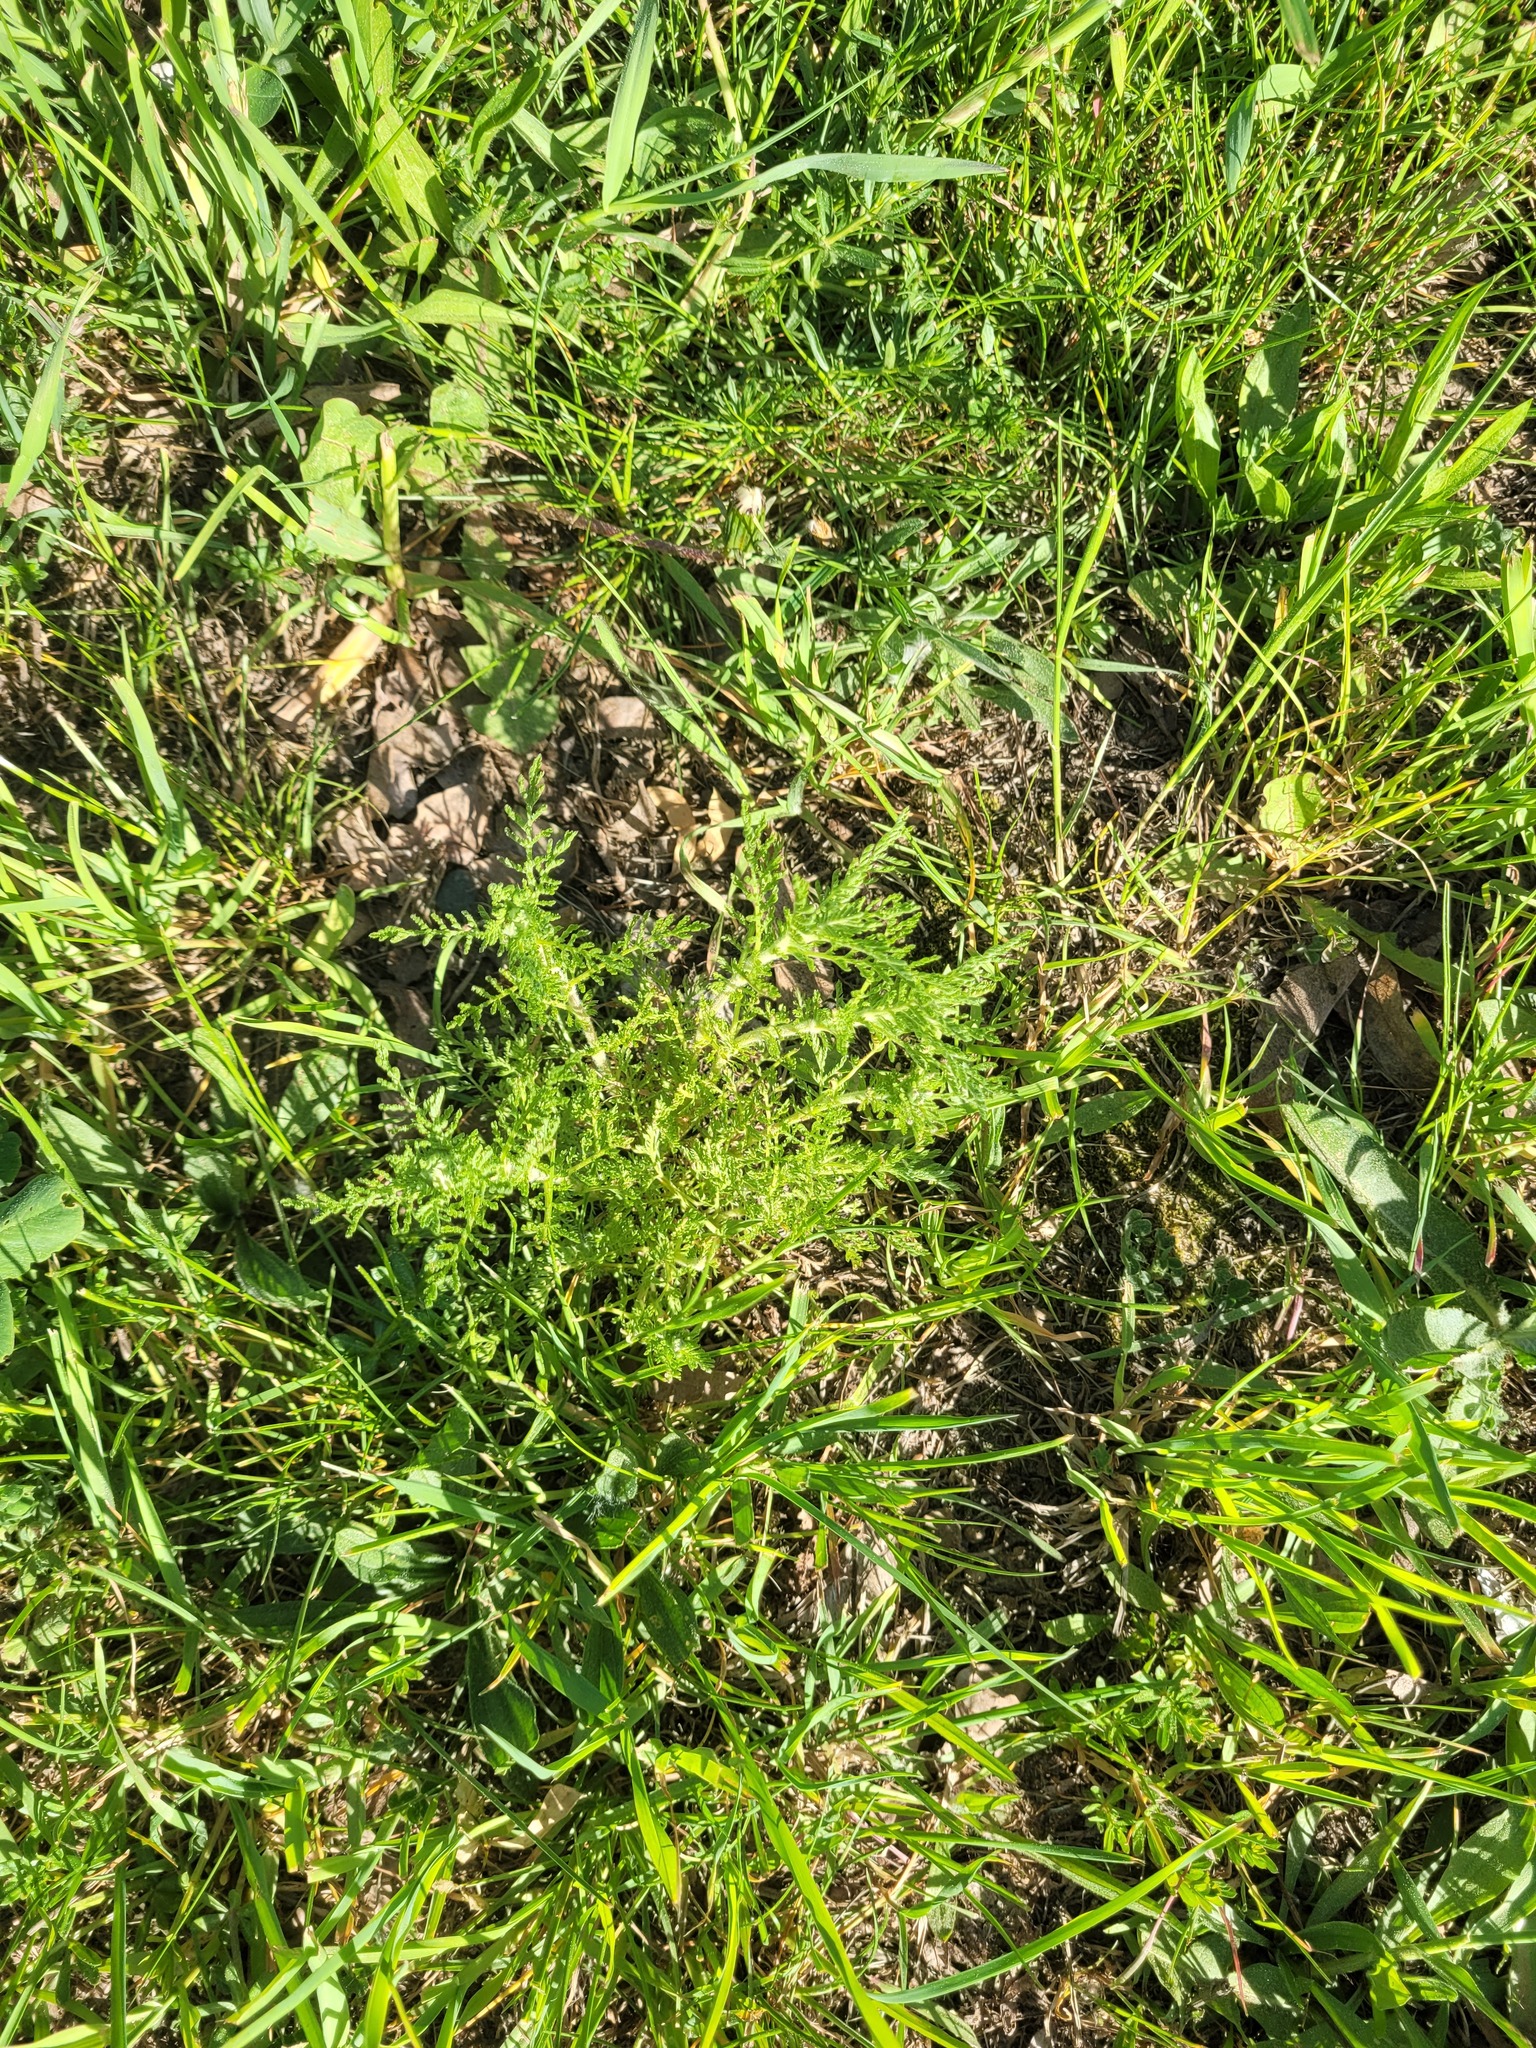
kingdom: Plantae
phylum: Tracheophyta
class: Magnoliopsida
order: Asterales
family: Asteraceae
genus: Achillea
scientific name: Achillea nobilis
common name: Noble yarrow
